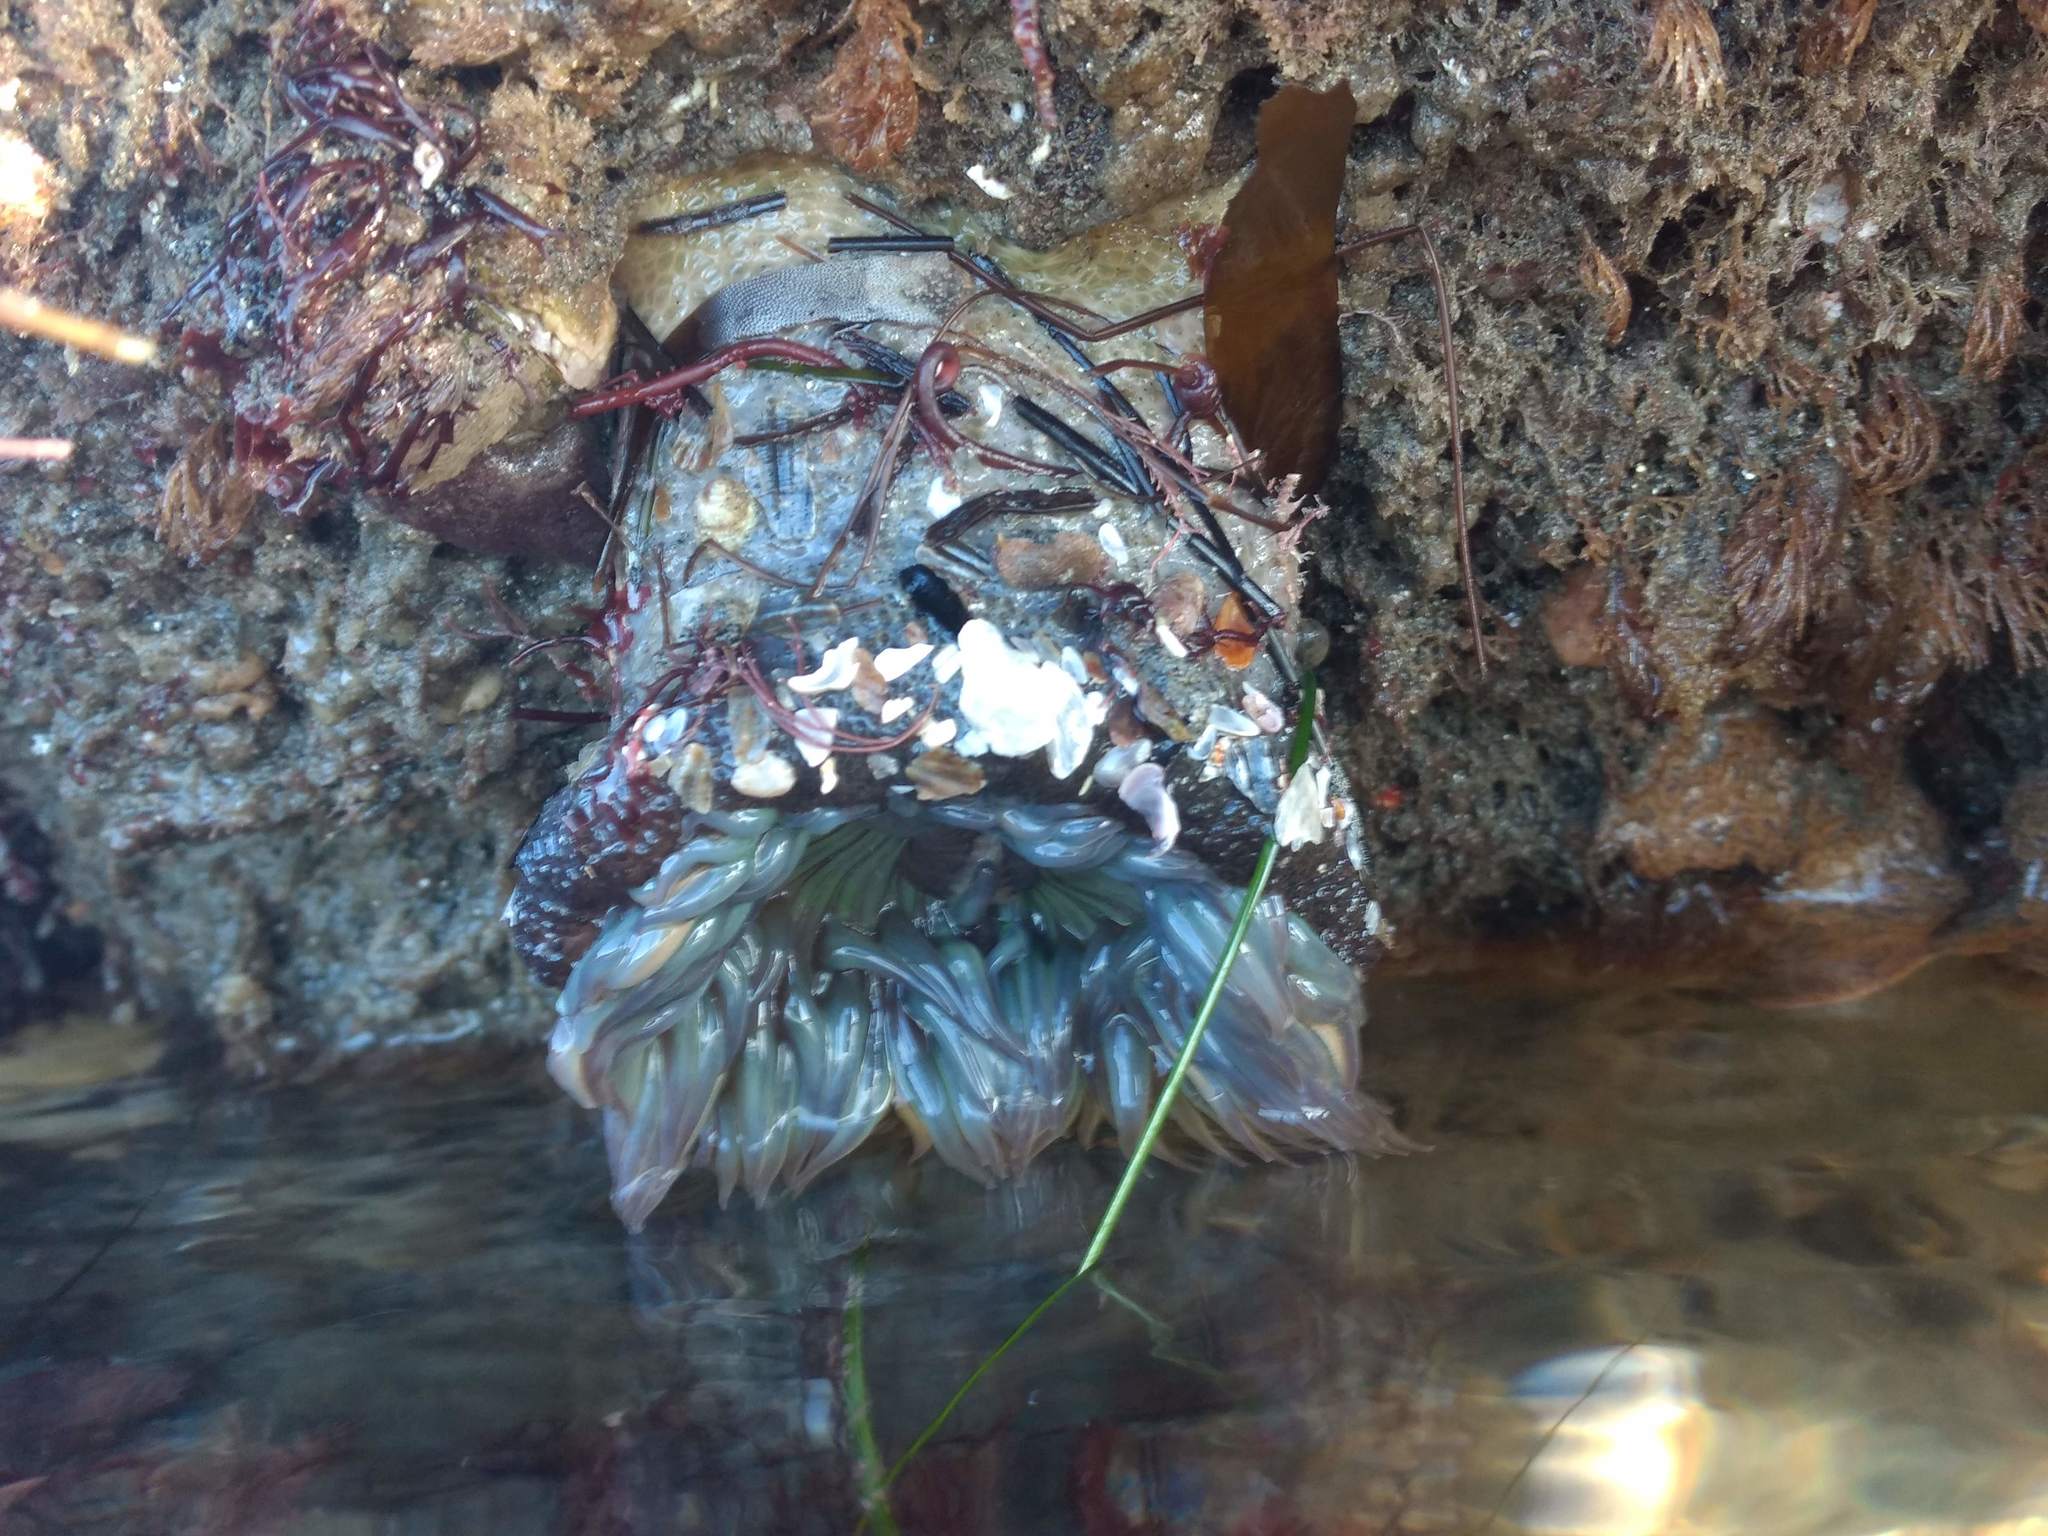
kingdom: Animalia
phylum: Cnidaria
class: Anthozoa
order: Actiniaria
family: Actiniidae
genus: Anthopleura
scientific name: Anthopleura sola
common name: Sun anemone
